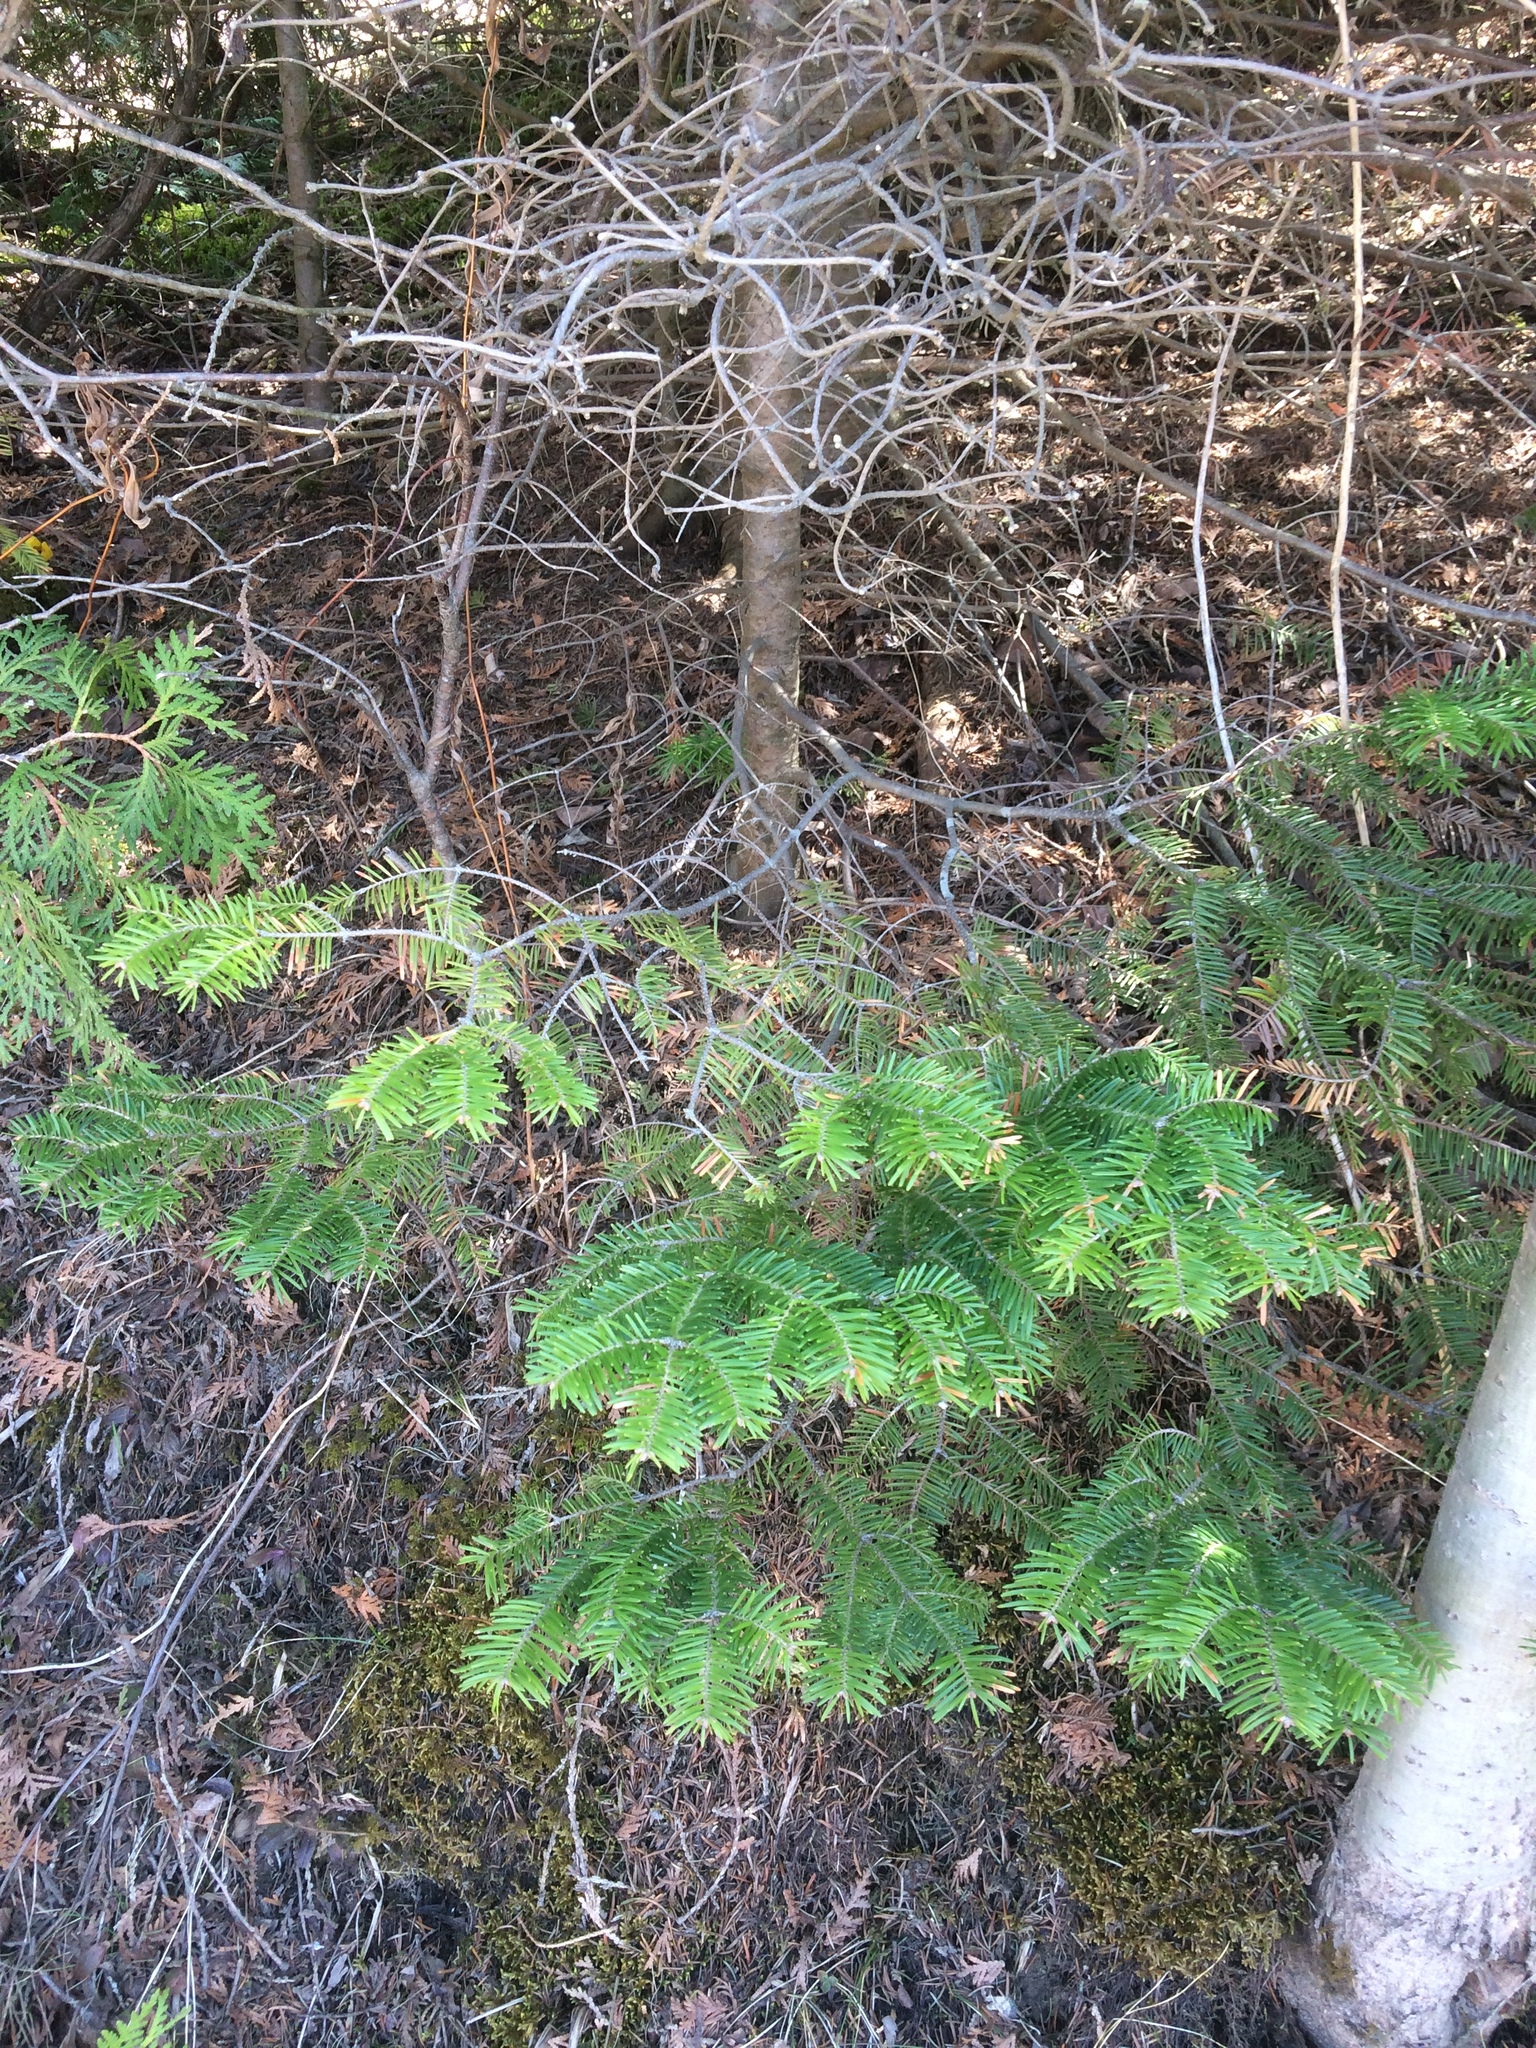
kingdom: Plantae
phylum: Tracheophyta
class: Pinopsida
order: Pinales
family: Pinaceae
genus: Abies
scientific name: Abies balsamea
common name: Balsam fir
